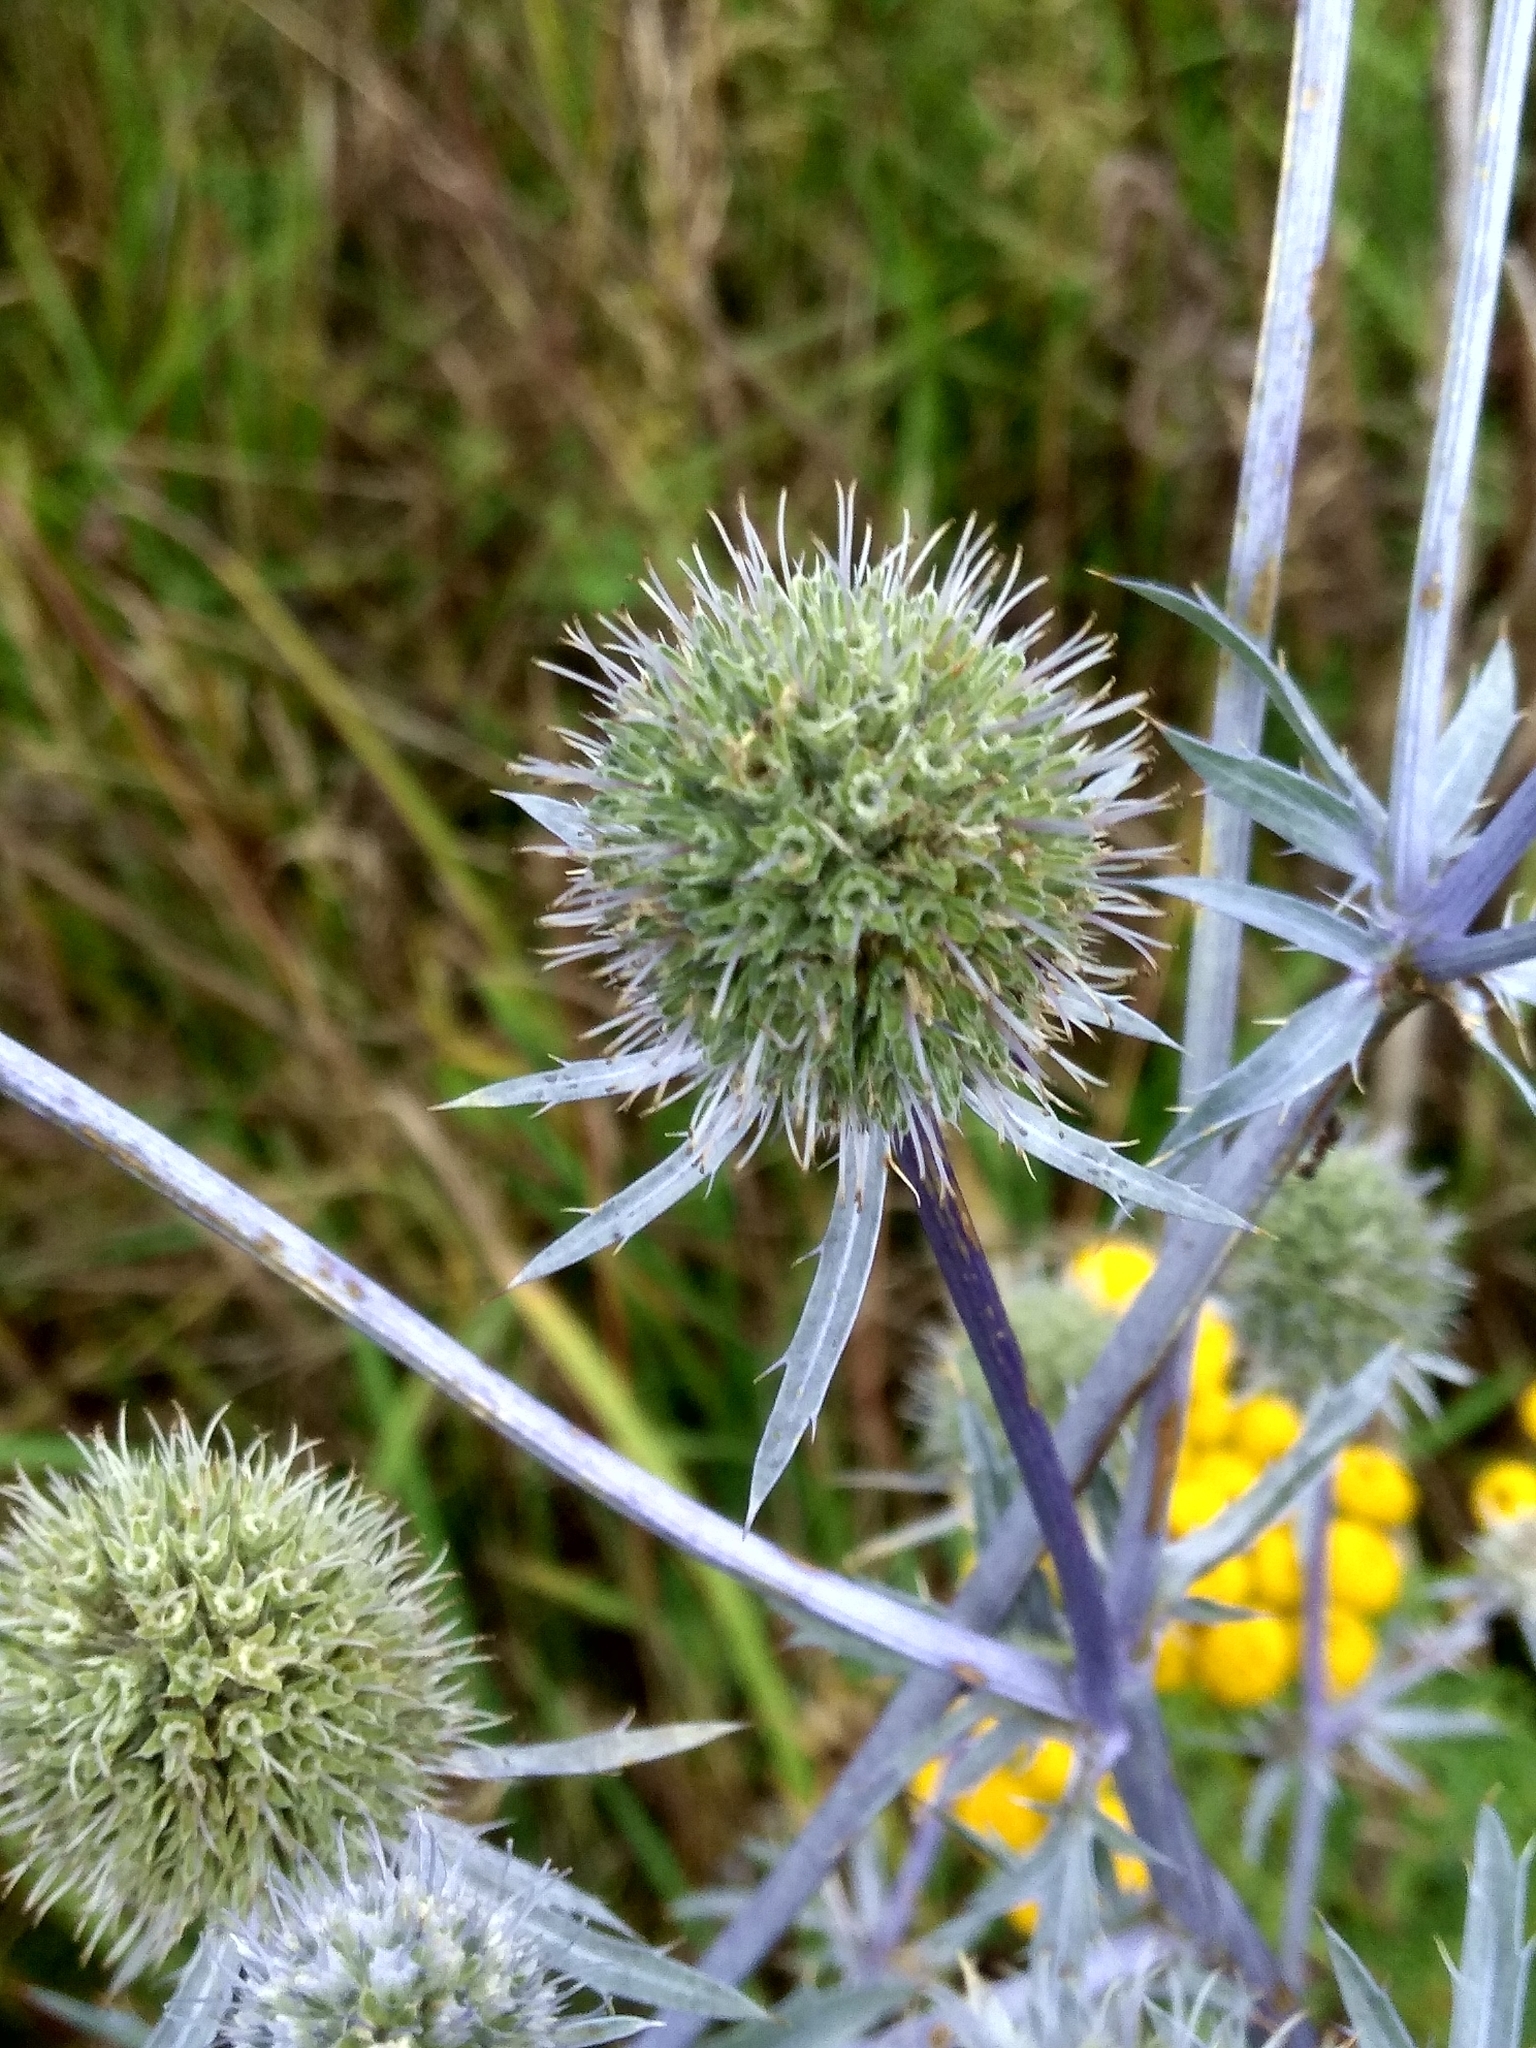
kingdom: Plantae
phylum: Tracheophyta
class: Magnoliopsida
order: Apiales
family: Apiaceae
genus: Eryngium
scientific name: Eryngium planum
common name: Blue eryngo
